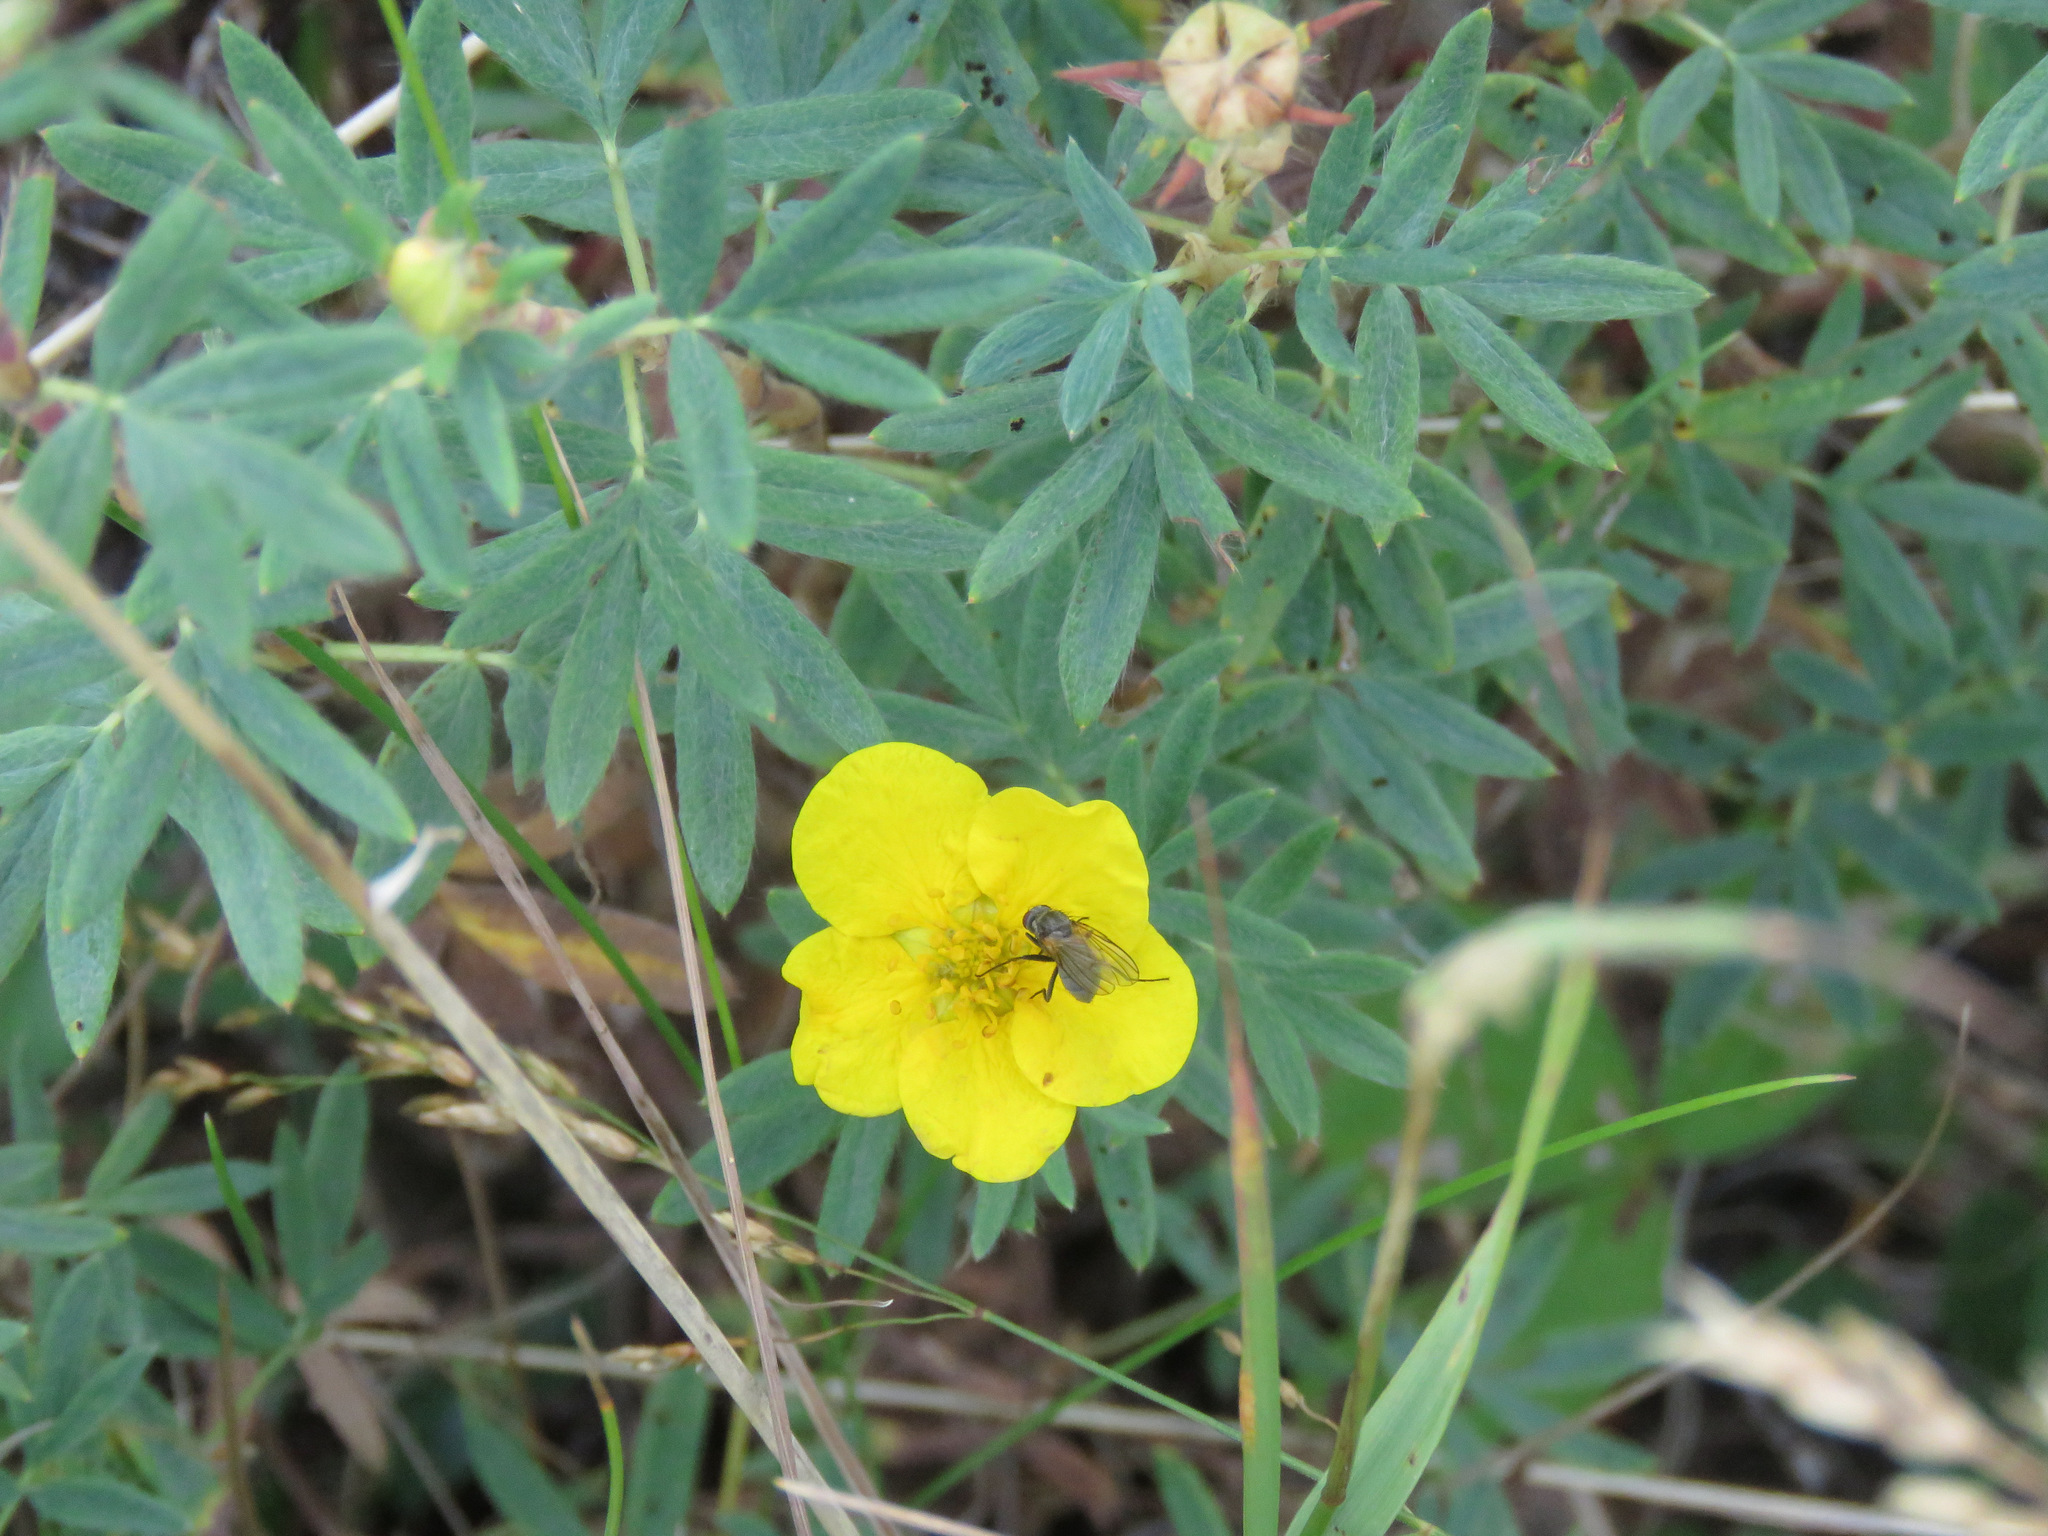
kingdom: Plantae
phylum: Tracheophyta
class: Magnoliopsida
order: Rosales
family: Rosaceae
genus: Dasiphora
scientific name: Dasiphora fruticosa
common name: Shrubby cinquefoil
